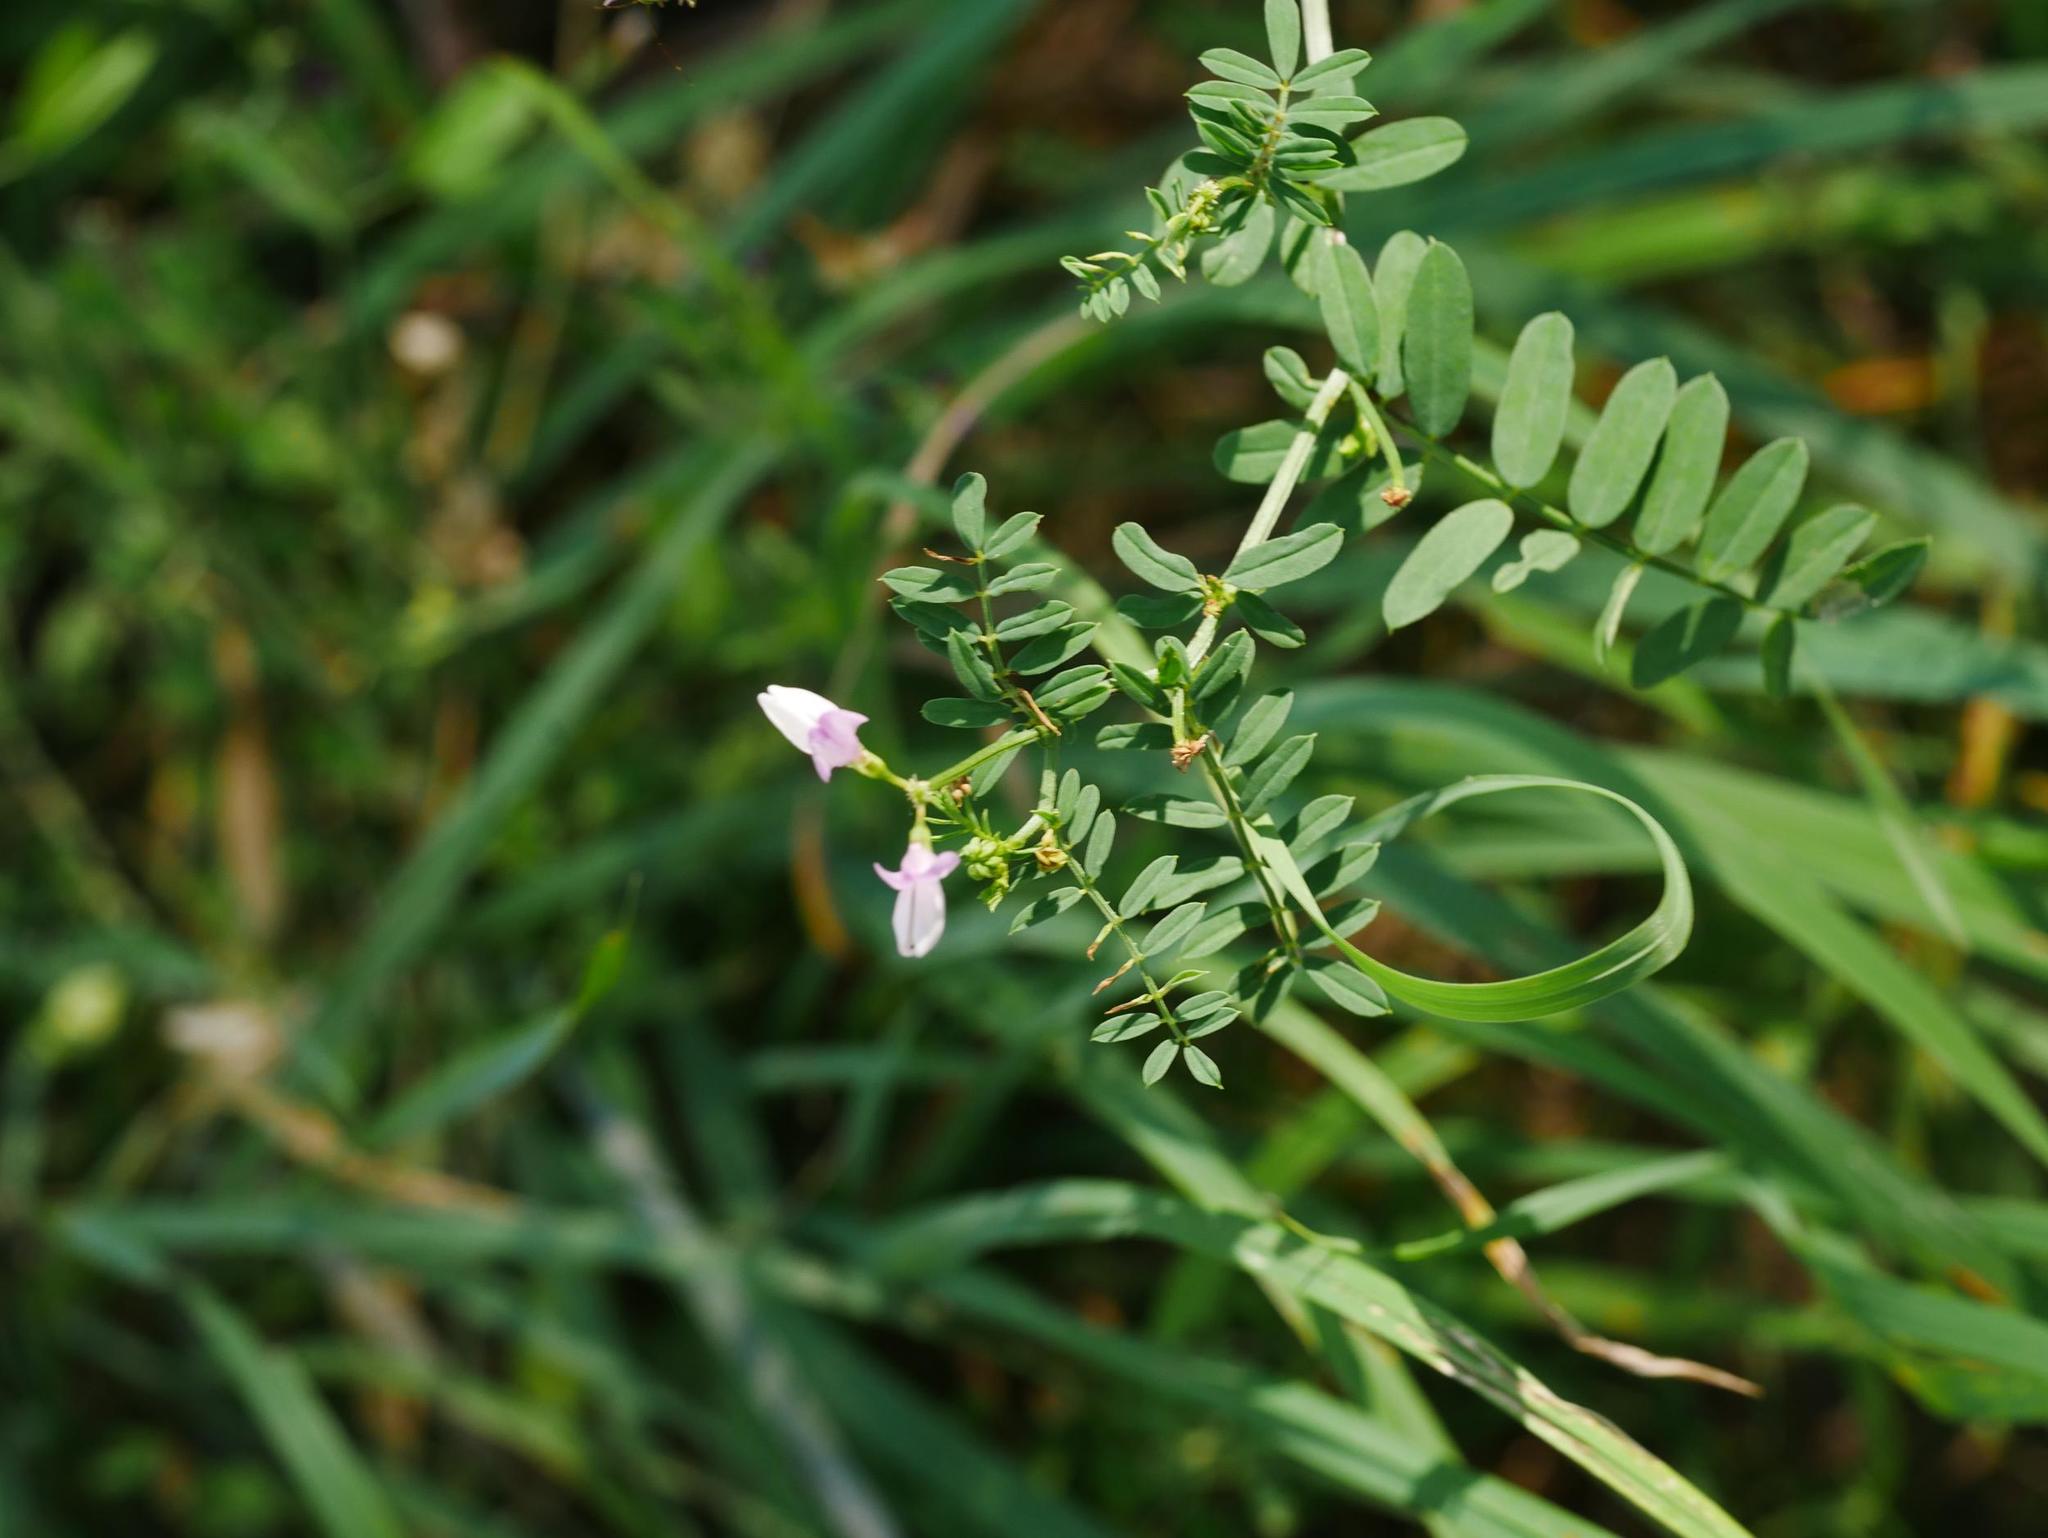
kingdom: Plantae
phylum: Tracheophyta
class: Magnoliopsida
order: Fabales
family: Fabaceae
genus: Coronilla
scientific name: Coronilla varia
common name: Crownvetch
